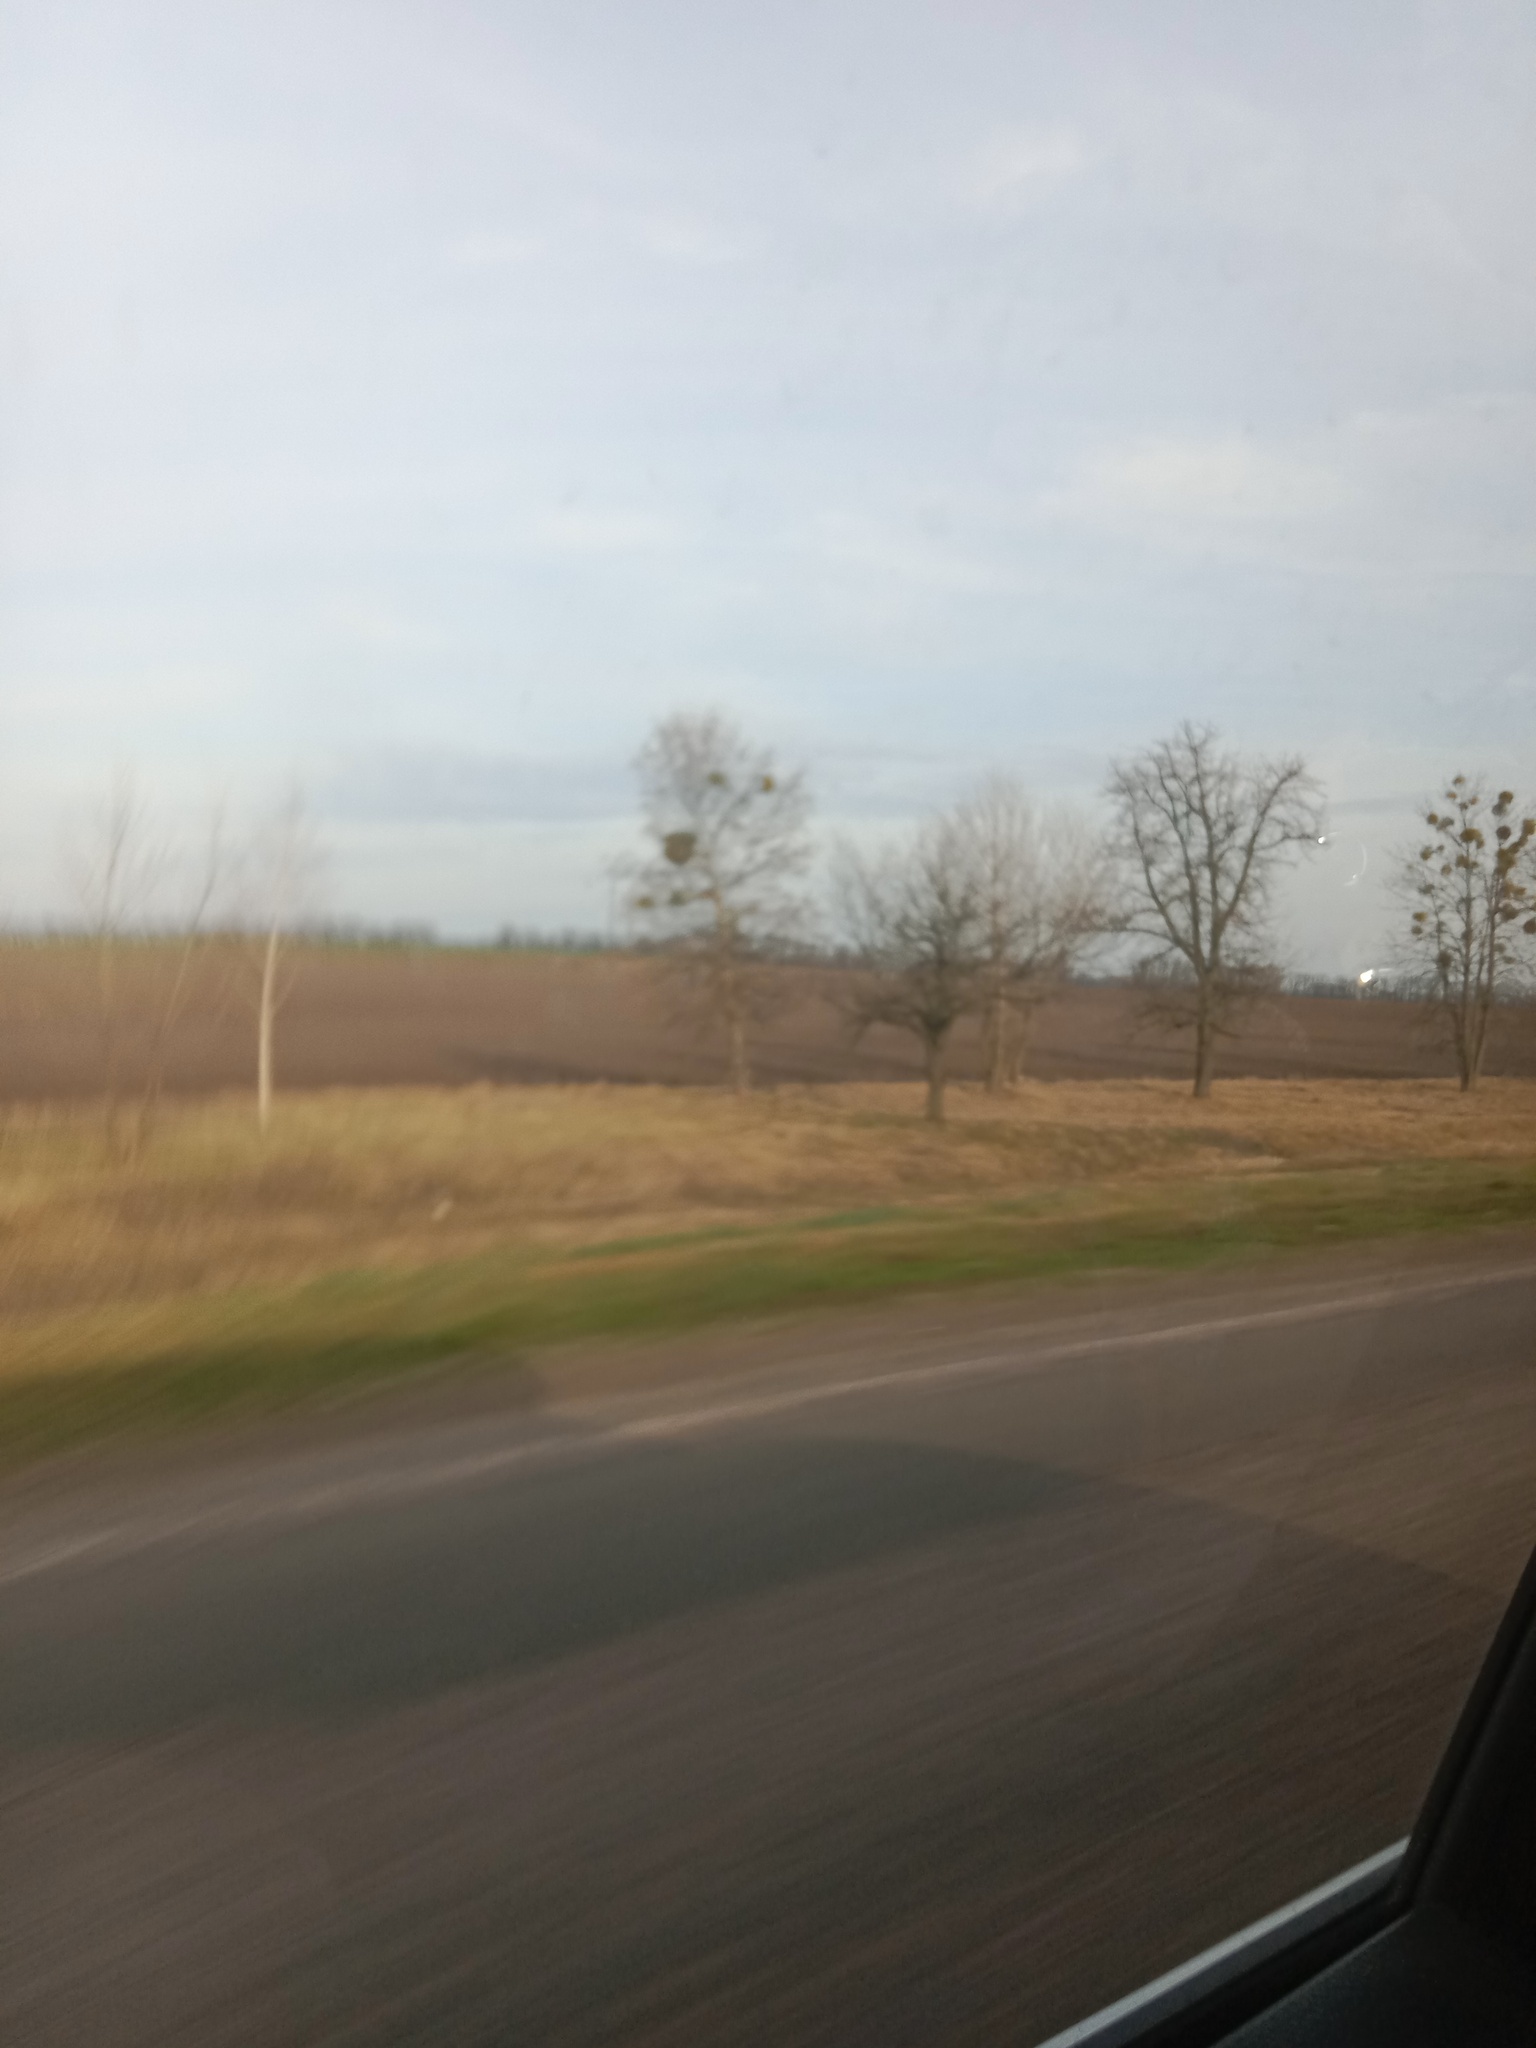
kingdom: Plantae
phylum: Tracheophyta
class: Magnoliopsida
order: Santalales
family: Viscaceae
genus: Viscum
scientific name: Viscum album
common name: Mistletoe
